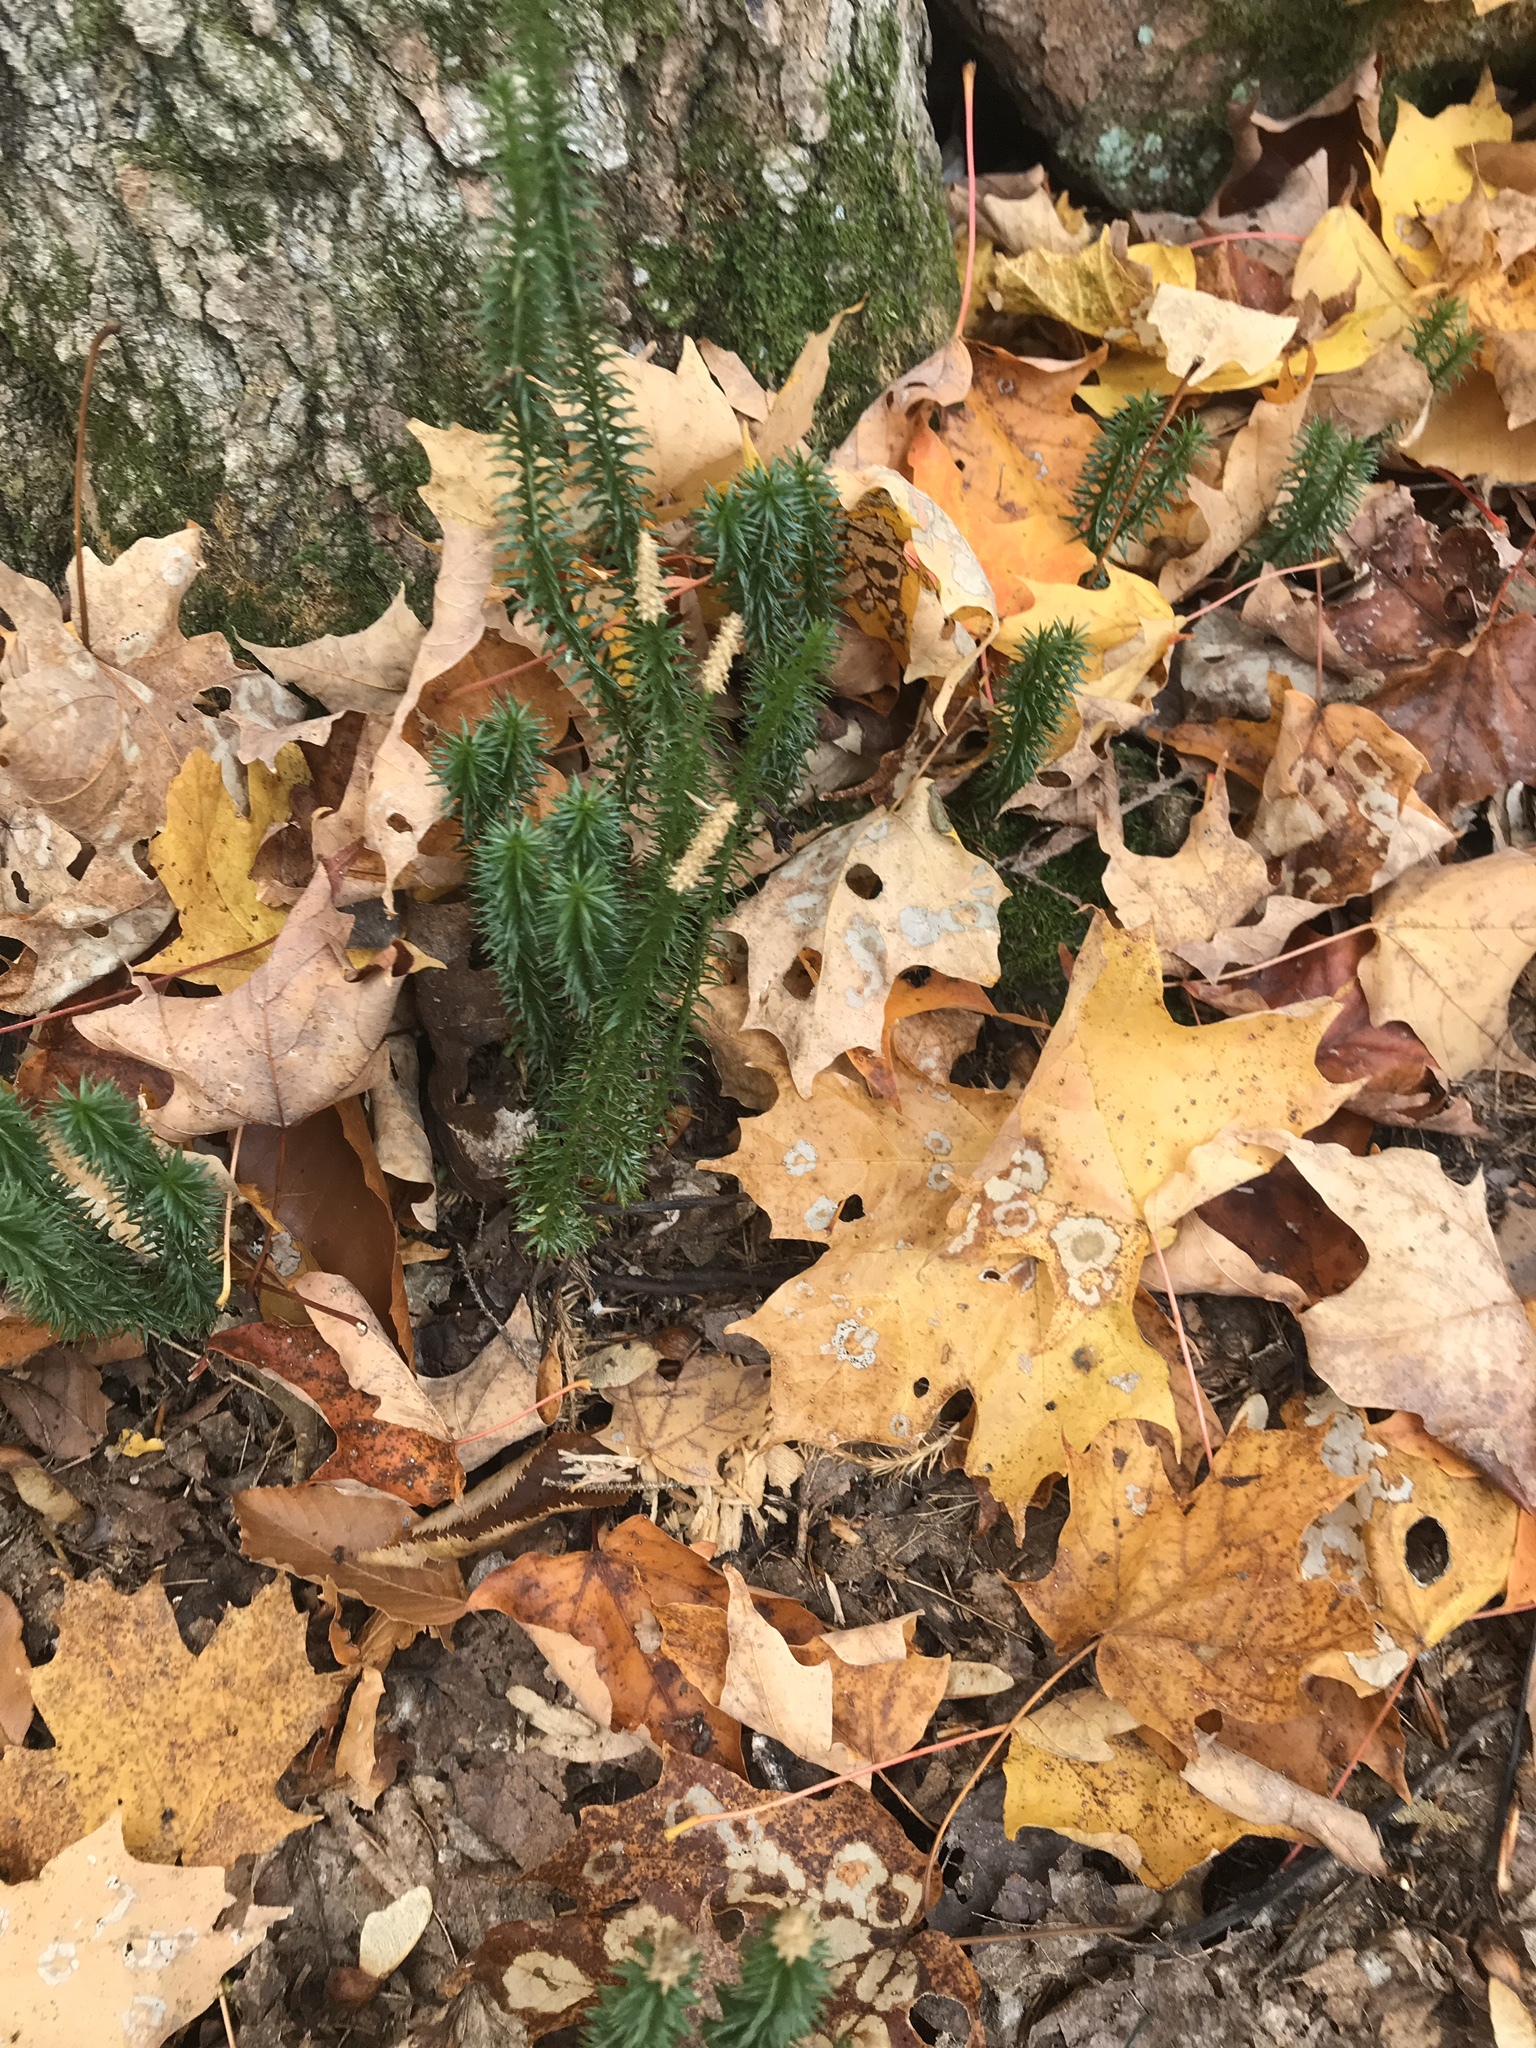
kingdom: Plantae
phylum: Tracheophyta
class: Lycopodiopsida
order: Lycopodiales
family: Lycopodiaceae
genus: Spinulum
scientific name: Spinulum annotinum
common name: Interrupted club-moss
